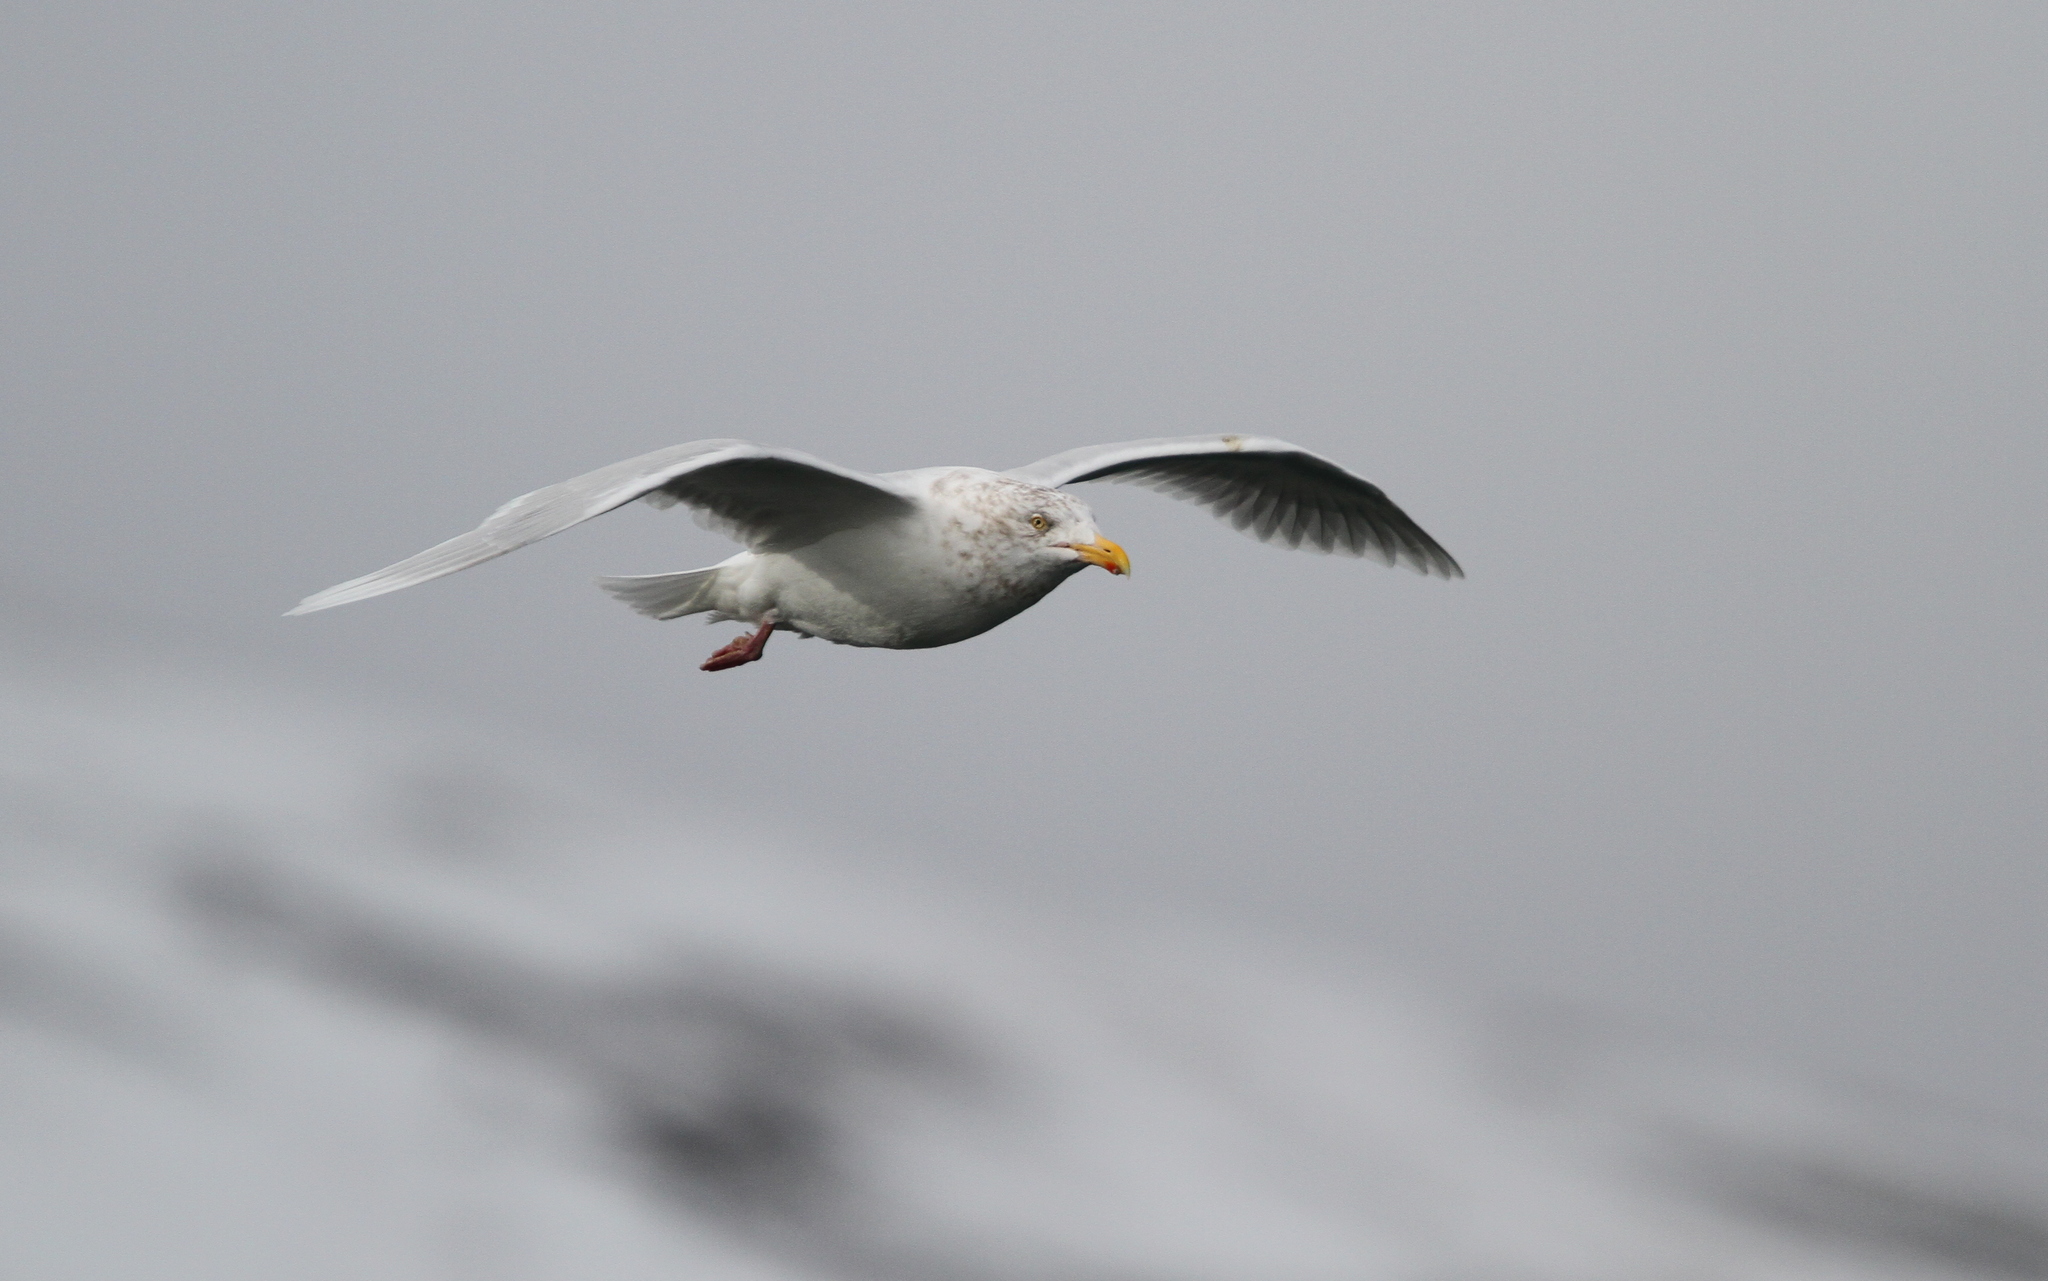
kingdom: Animalia
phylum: Chordata
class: Aves
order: Charadriiformes
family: Laridae
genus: Larus
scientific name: Larus hyperboreus
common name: Glaucous gull
